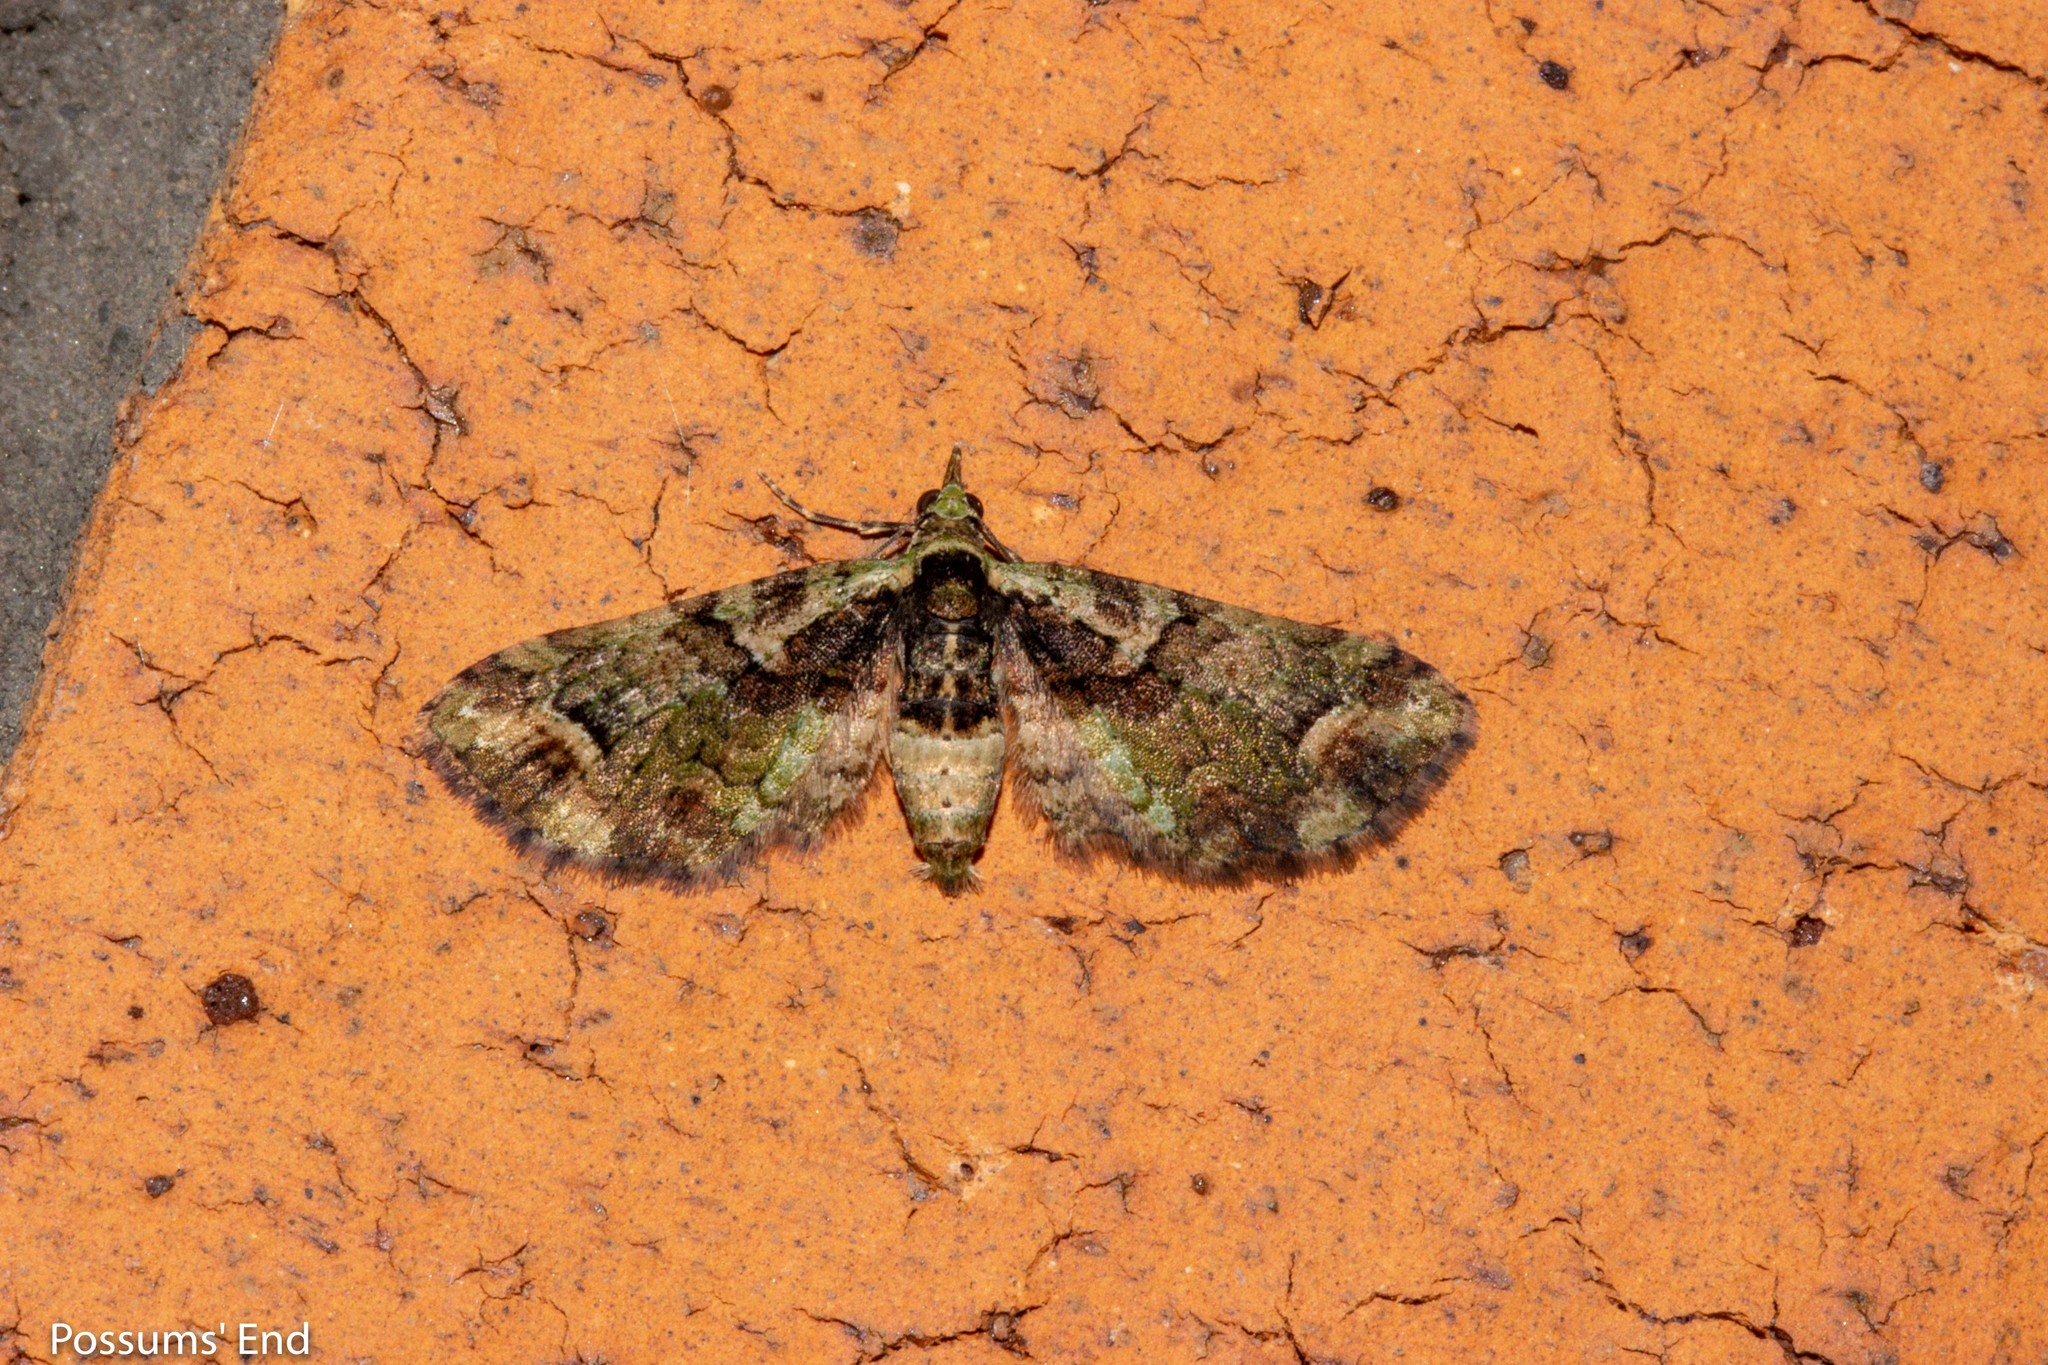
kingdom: Animalia
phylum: Arthropoda
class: Insecta
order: Lepidoptera
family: Geometridae
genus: Idaea
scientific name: Idaea mutanda
